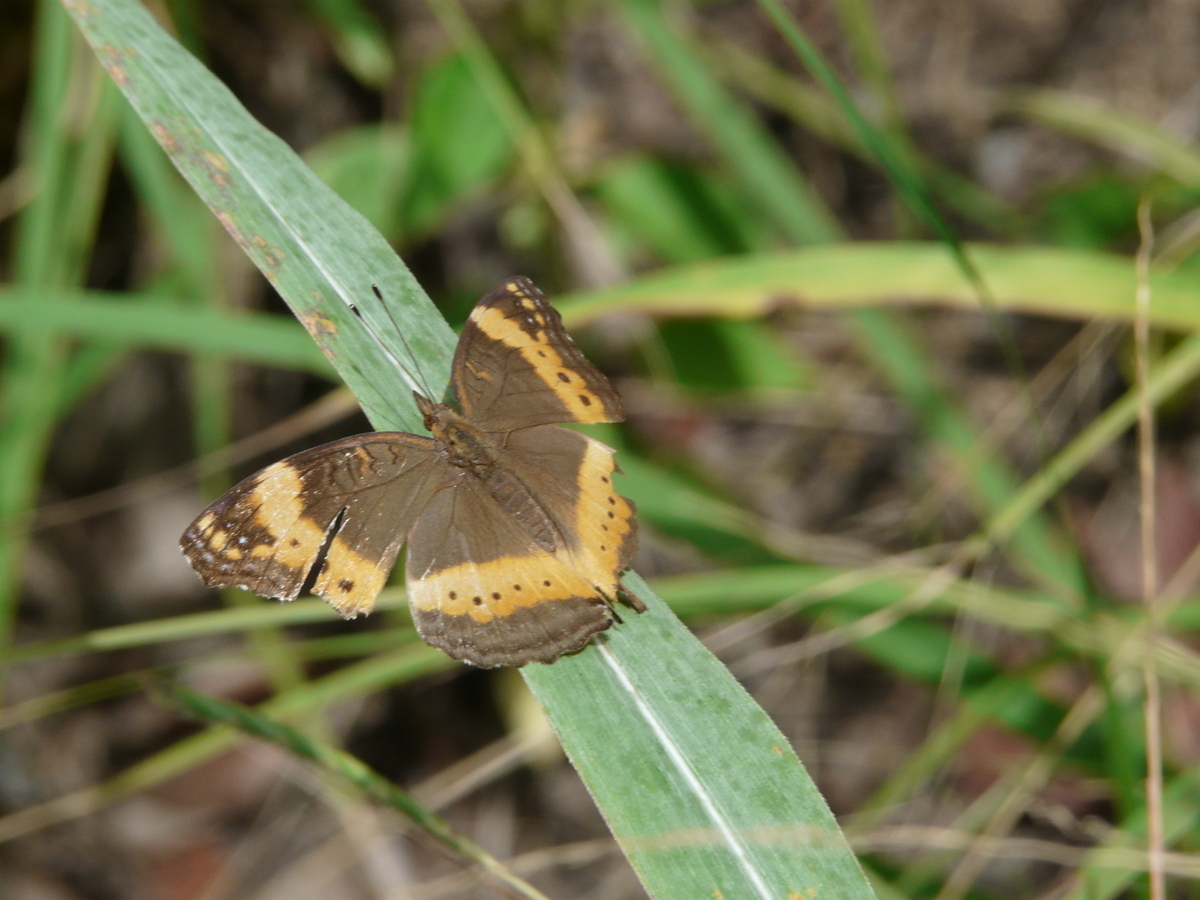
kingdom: Animalia
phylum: Arthropoda
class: Insecta
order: Lepidoptera
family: Nymphalidae
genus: Junonia
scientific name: Junonia archesia
